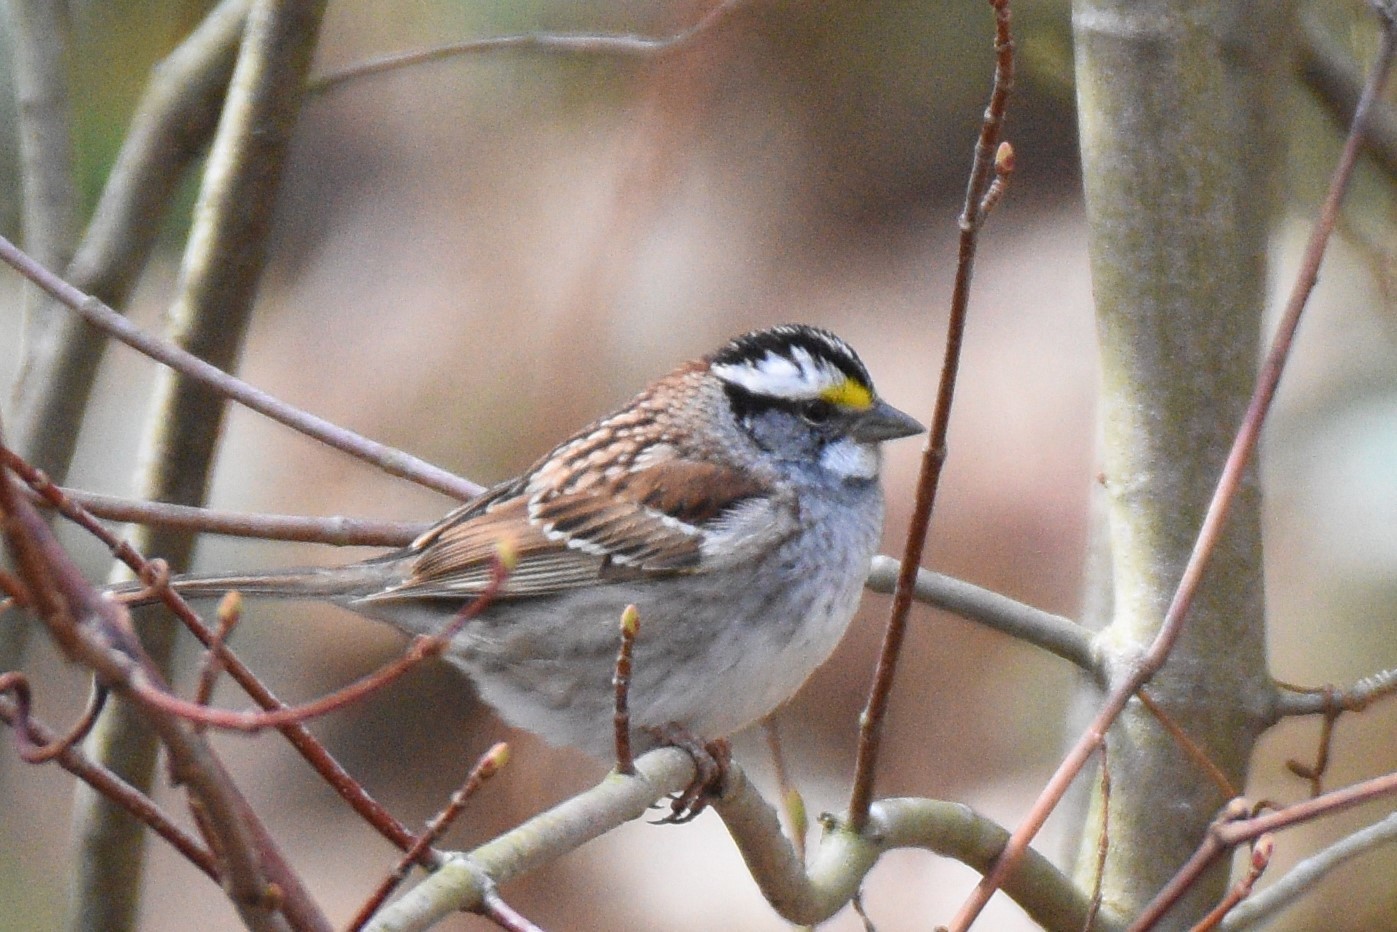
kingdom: Animalia
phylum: Chordata
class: Aves
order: Passeriformes
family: Passerellidae
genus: Zonotrichia
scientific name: Zonotrichia albicollis
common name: White-throated sparrow
